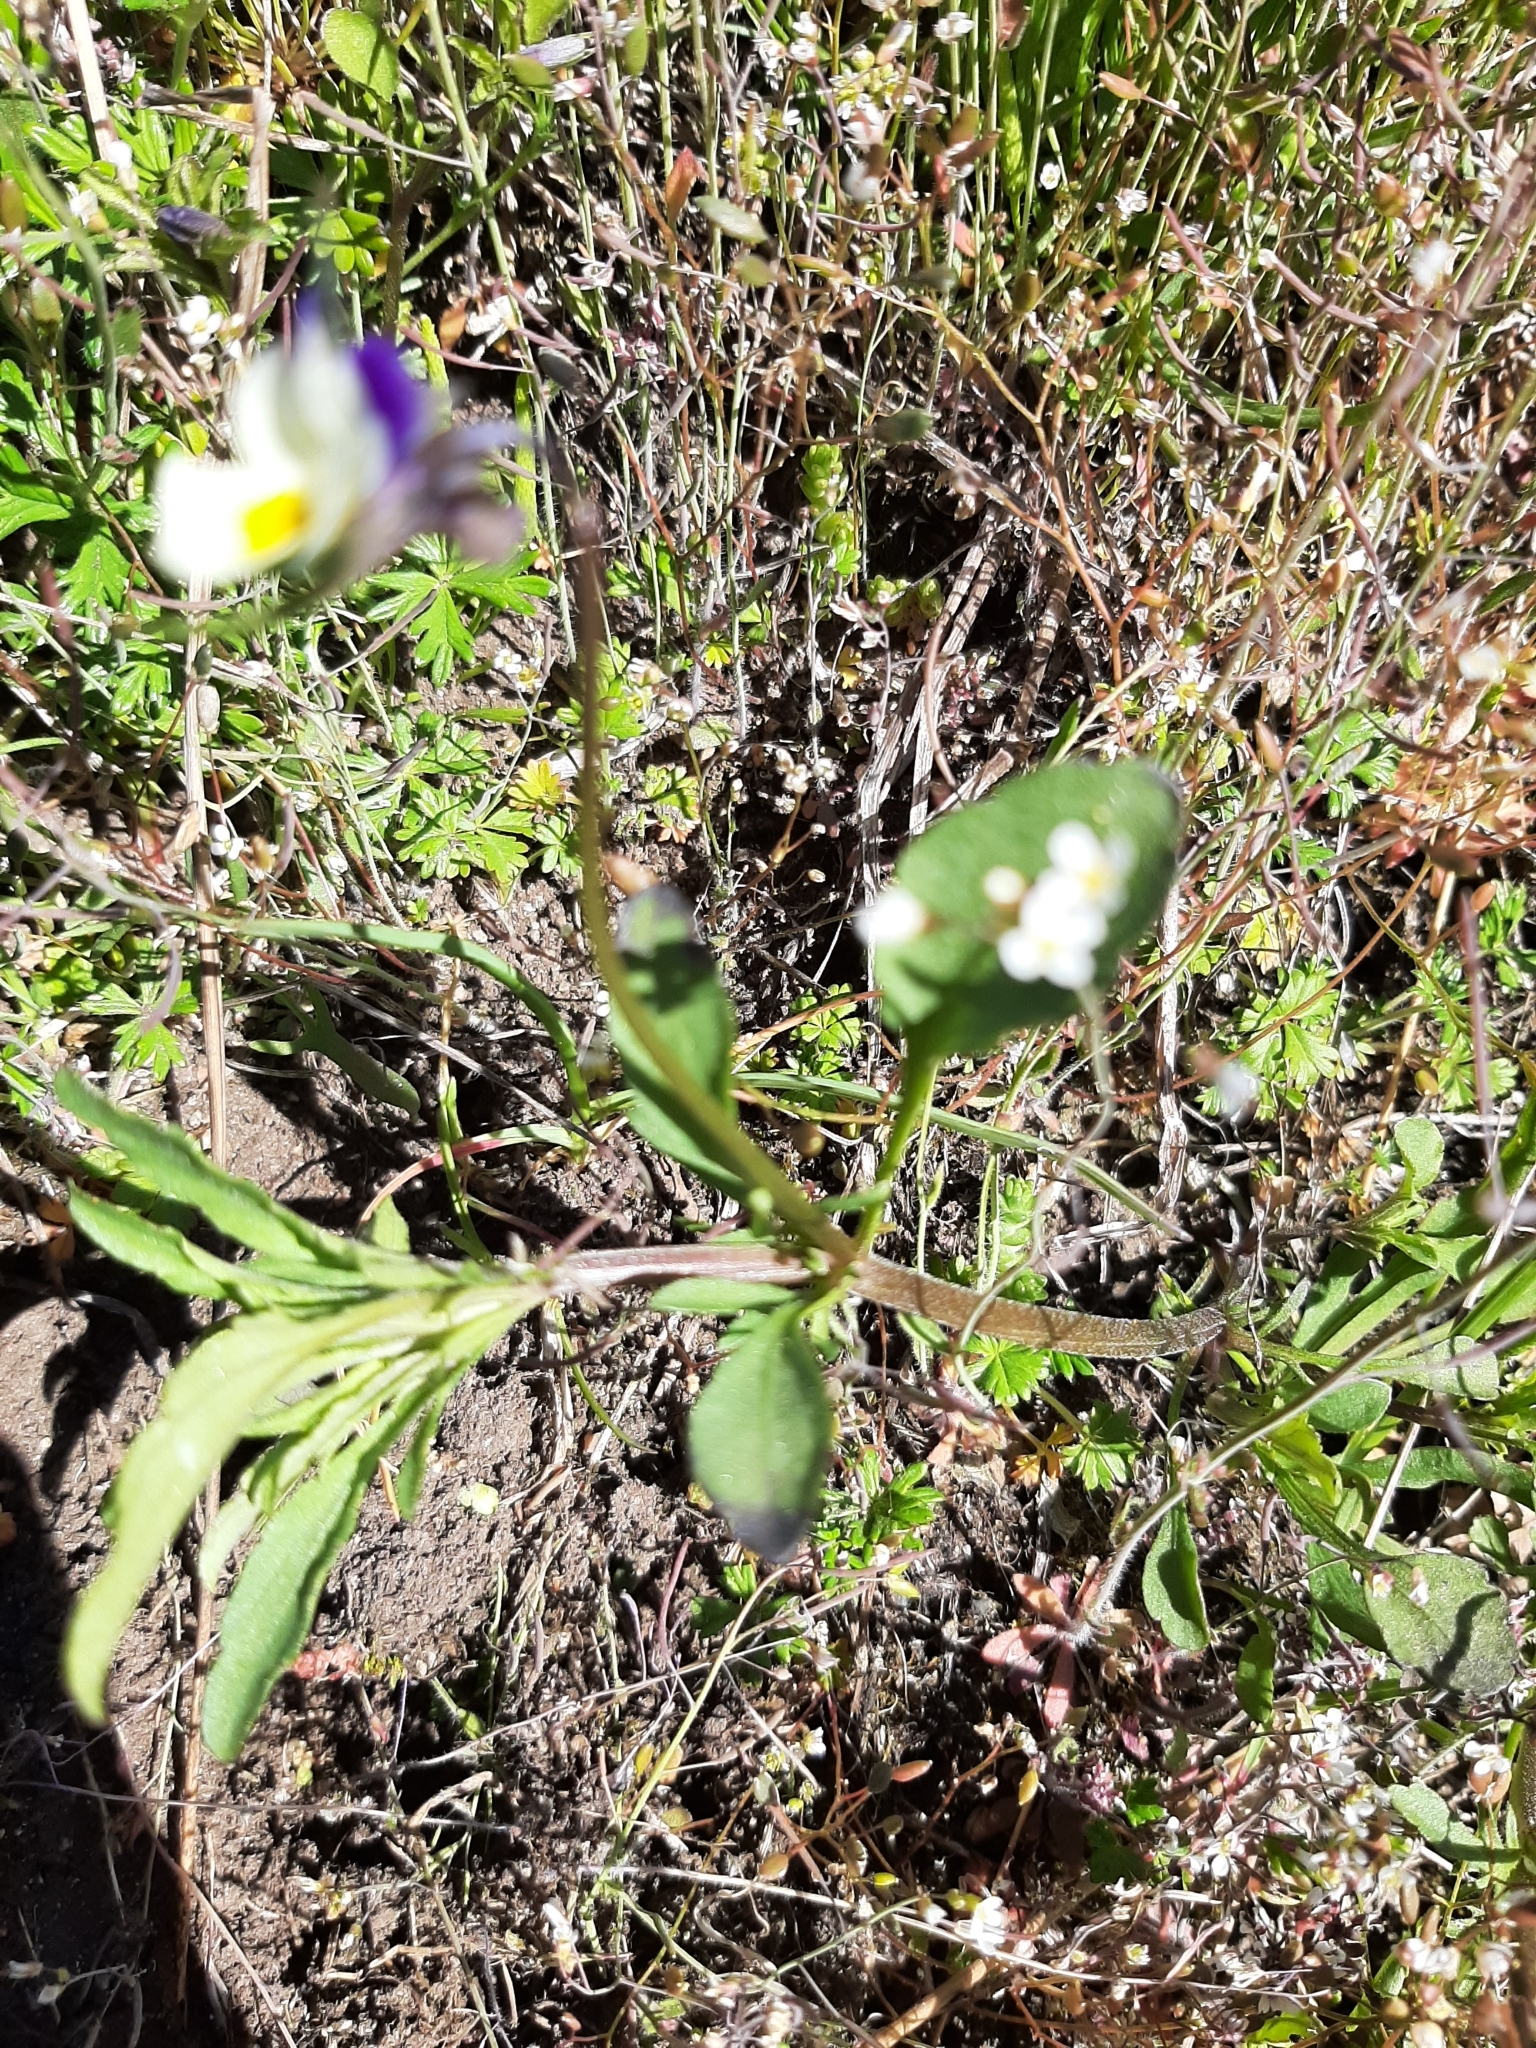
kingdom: Plantae
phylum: Tracheophyta
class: Magnoliopsida
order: Malpighiales
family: Violaceae
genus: Viola
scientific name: Viola arvensis
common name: Field pansy
